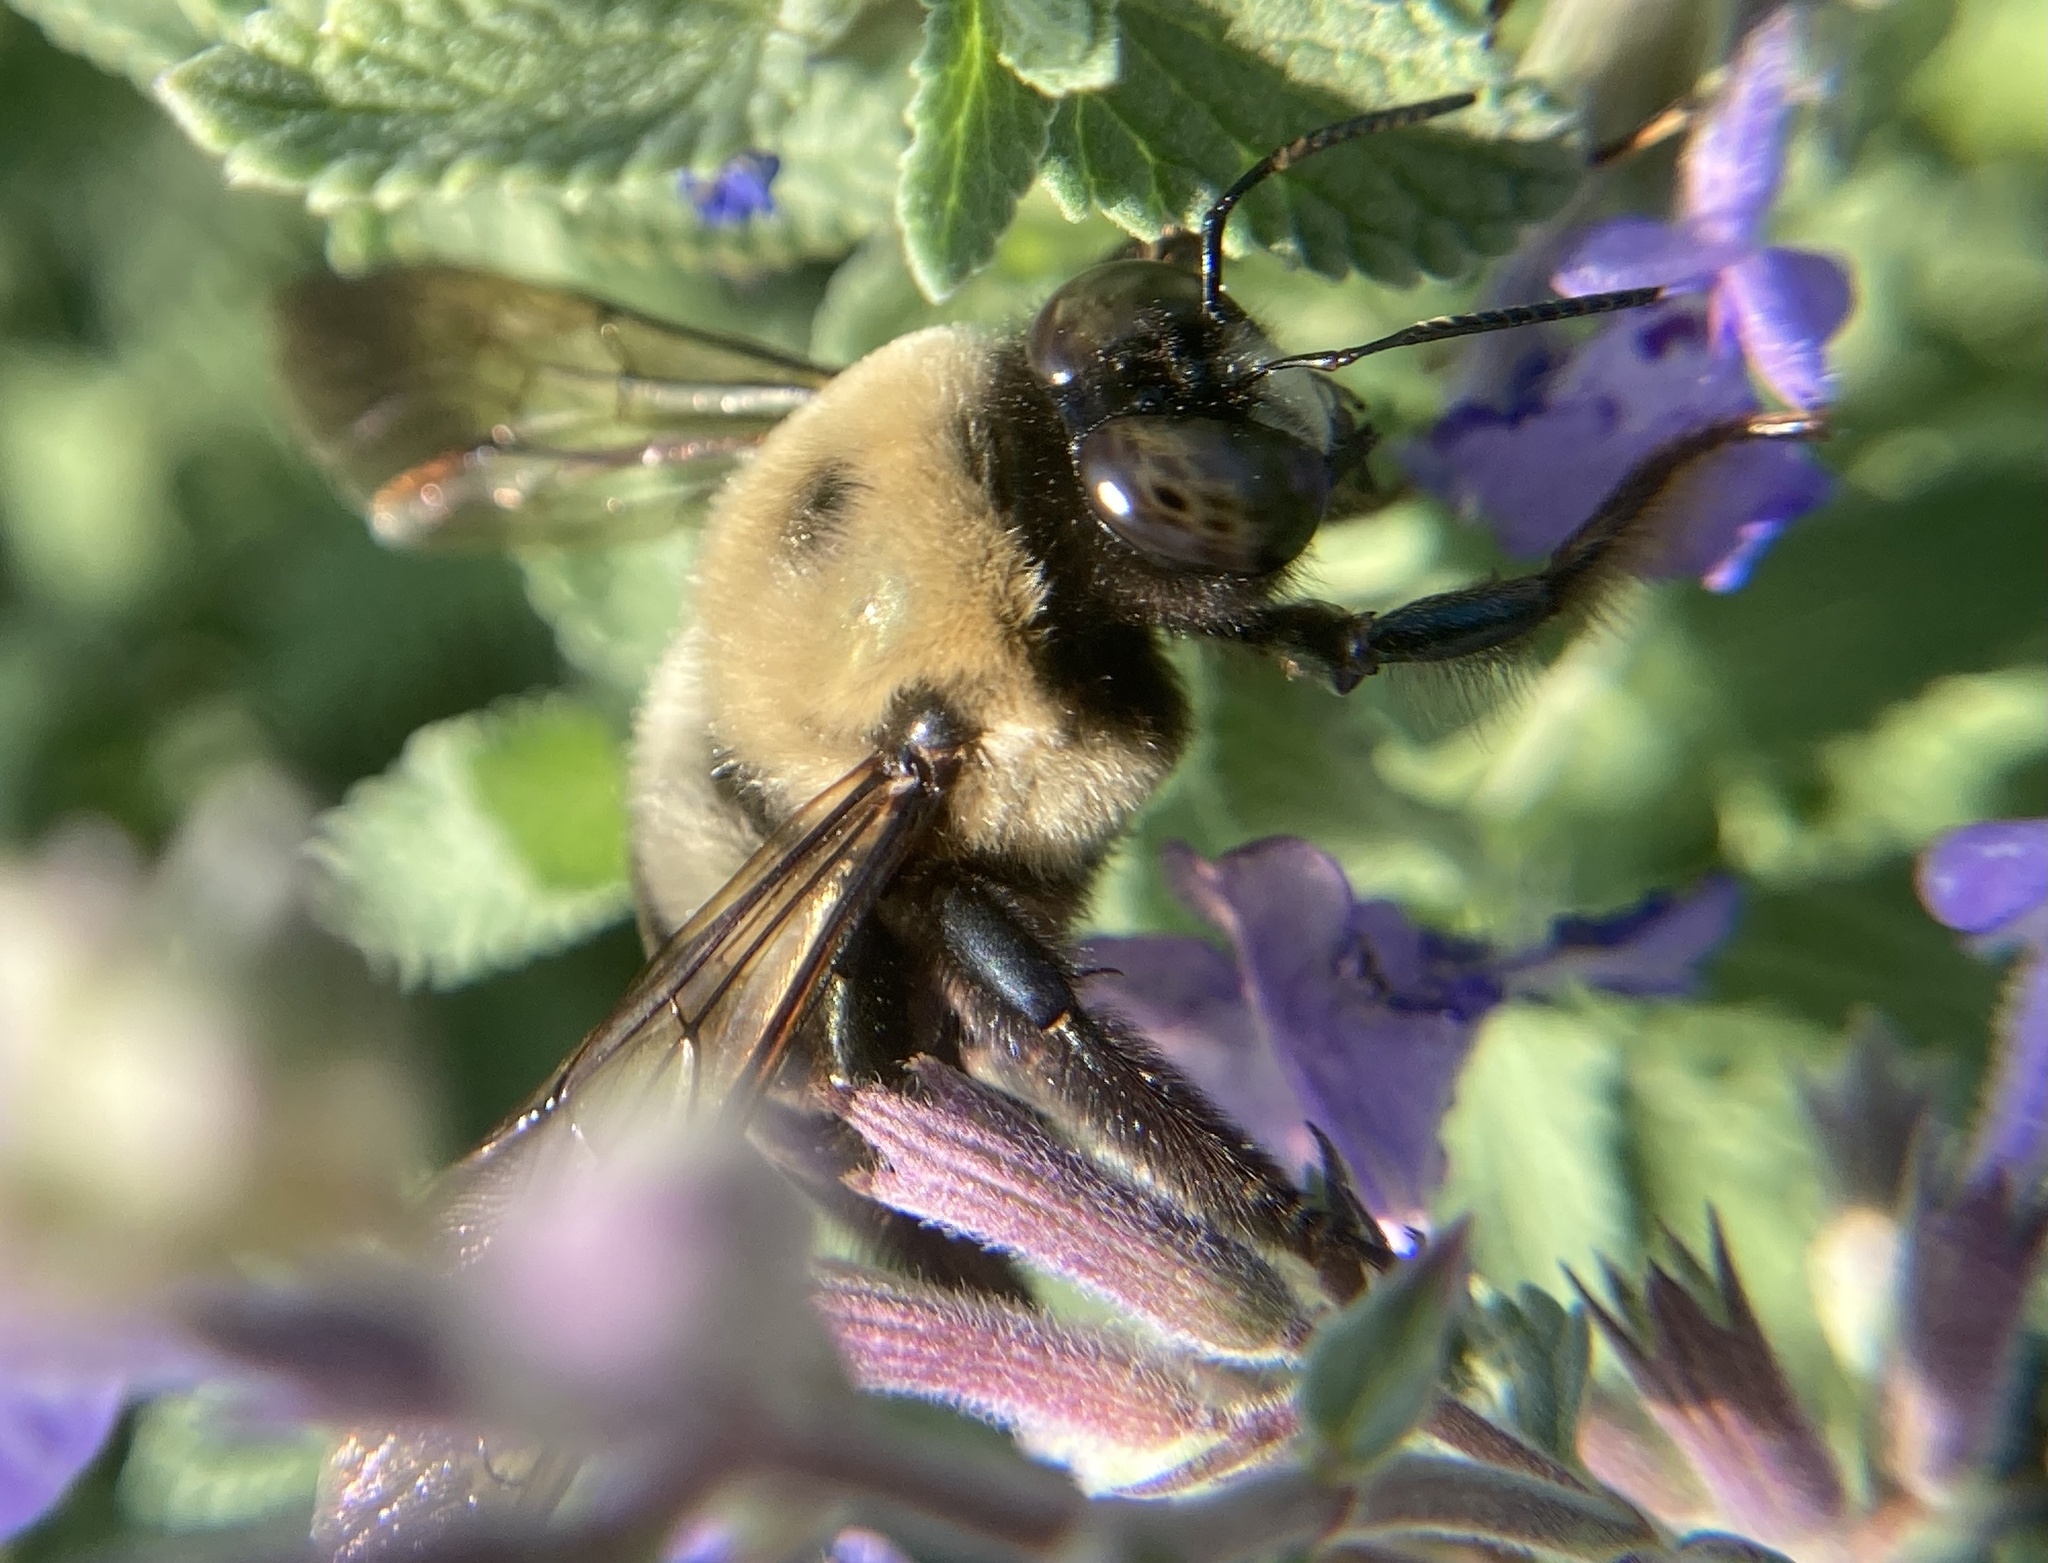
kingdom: Animalia
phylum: Arthropoda
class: Insecta
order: Hymenoptera
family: Apidae
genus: Xylocopa
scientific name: Xylocopa virginica
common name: Carpenter bee
